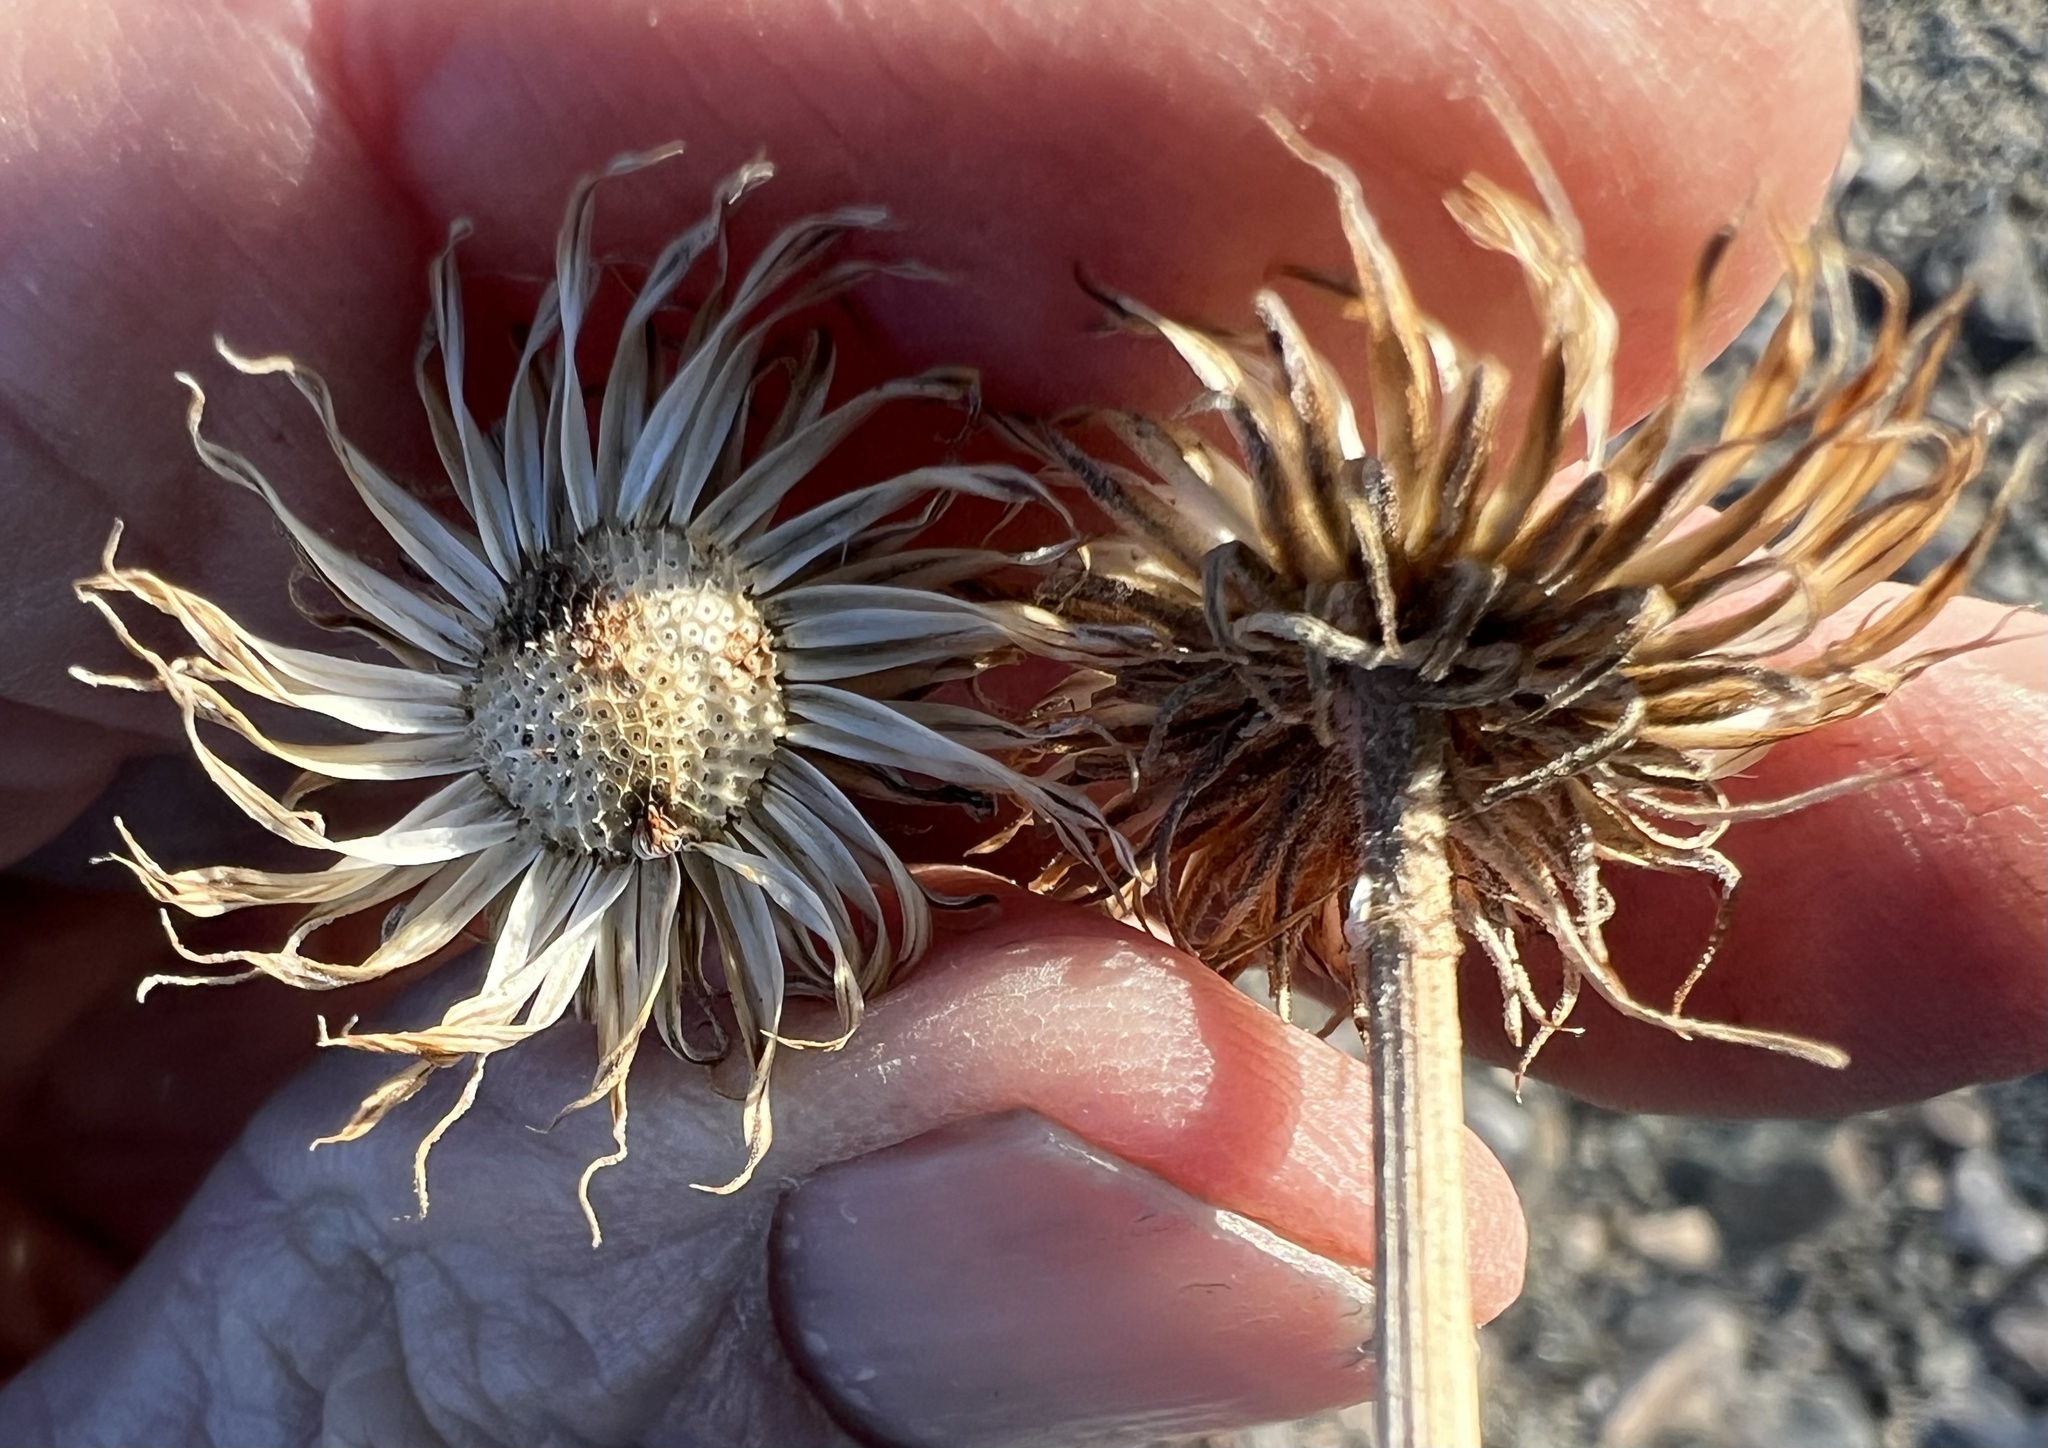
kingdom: Plantae
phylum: Tracheophyta
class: Magnoliopsida
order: Asterales
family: Asteraceae
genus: Xylorhiza
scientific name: Xylorhiza tortifolia
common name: Hurt-leaf woody-aster
